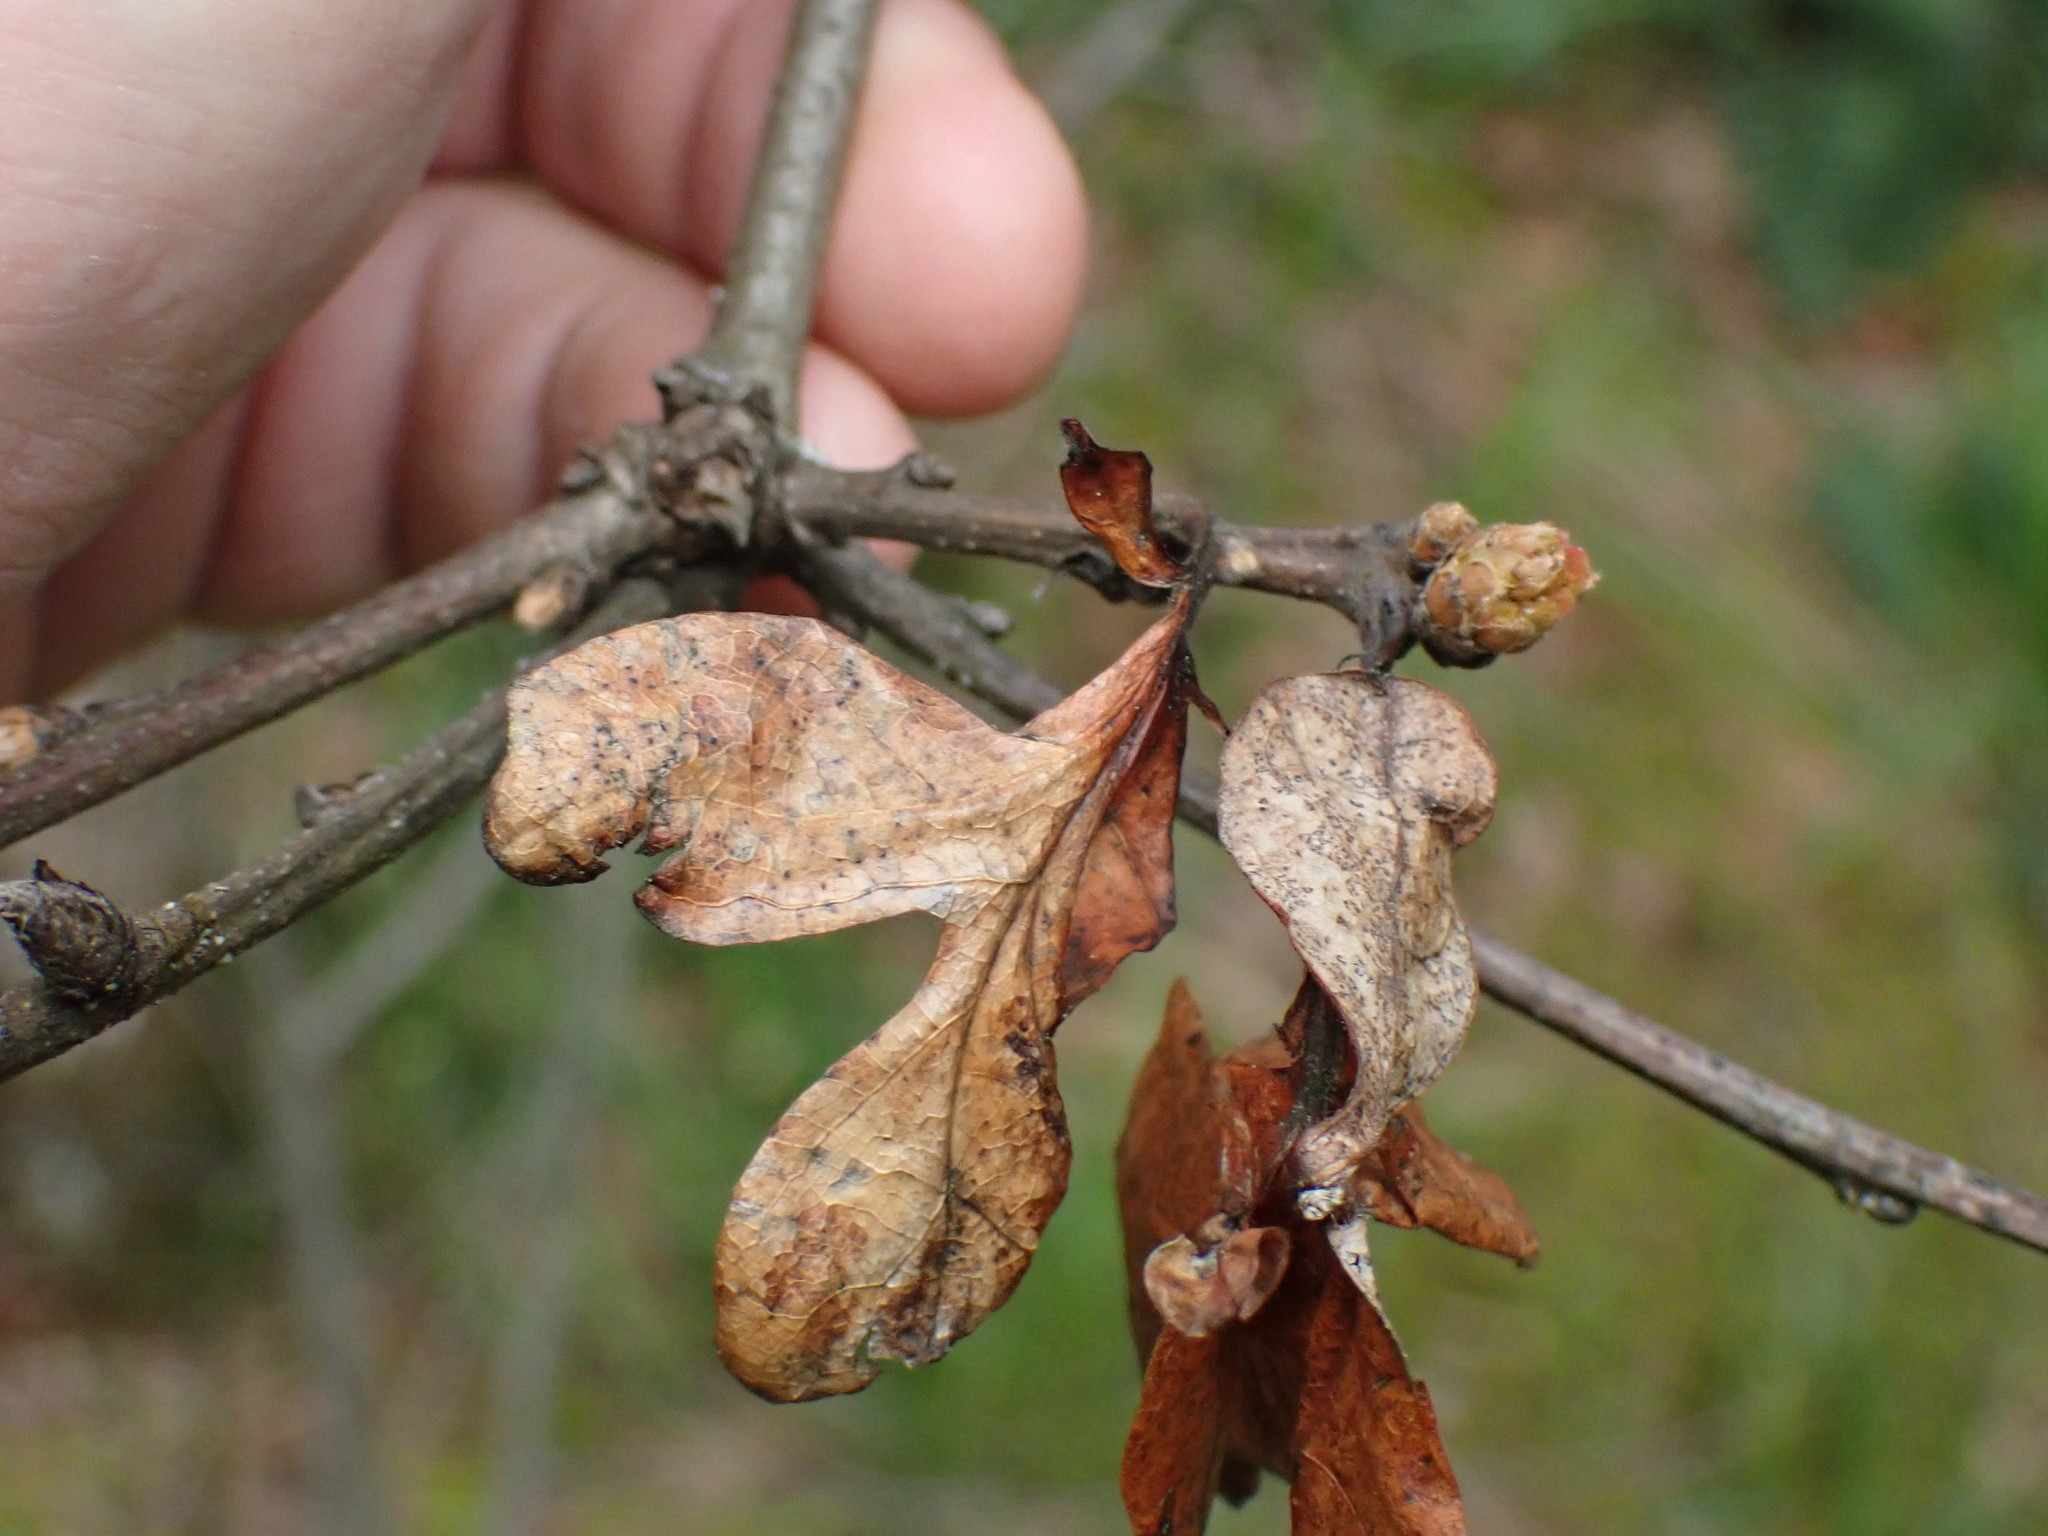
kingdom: Plantae
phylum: Tracheophyta
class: Magnoliopsida
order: Fagales
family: Fagaceae
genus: Quercus
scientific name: Quercus garryana
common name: Garry oak
